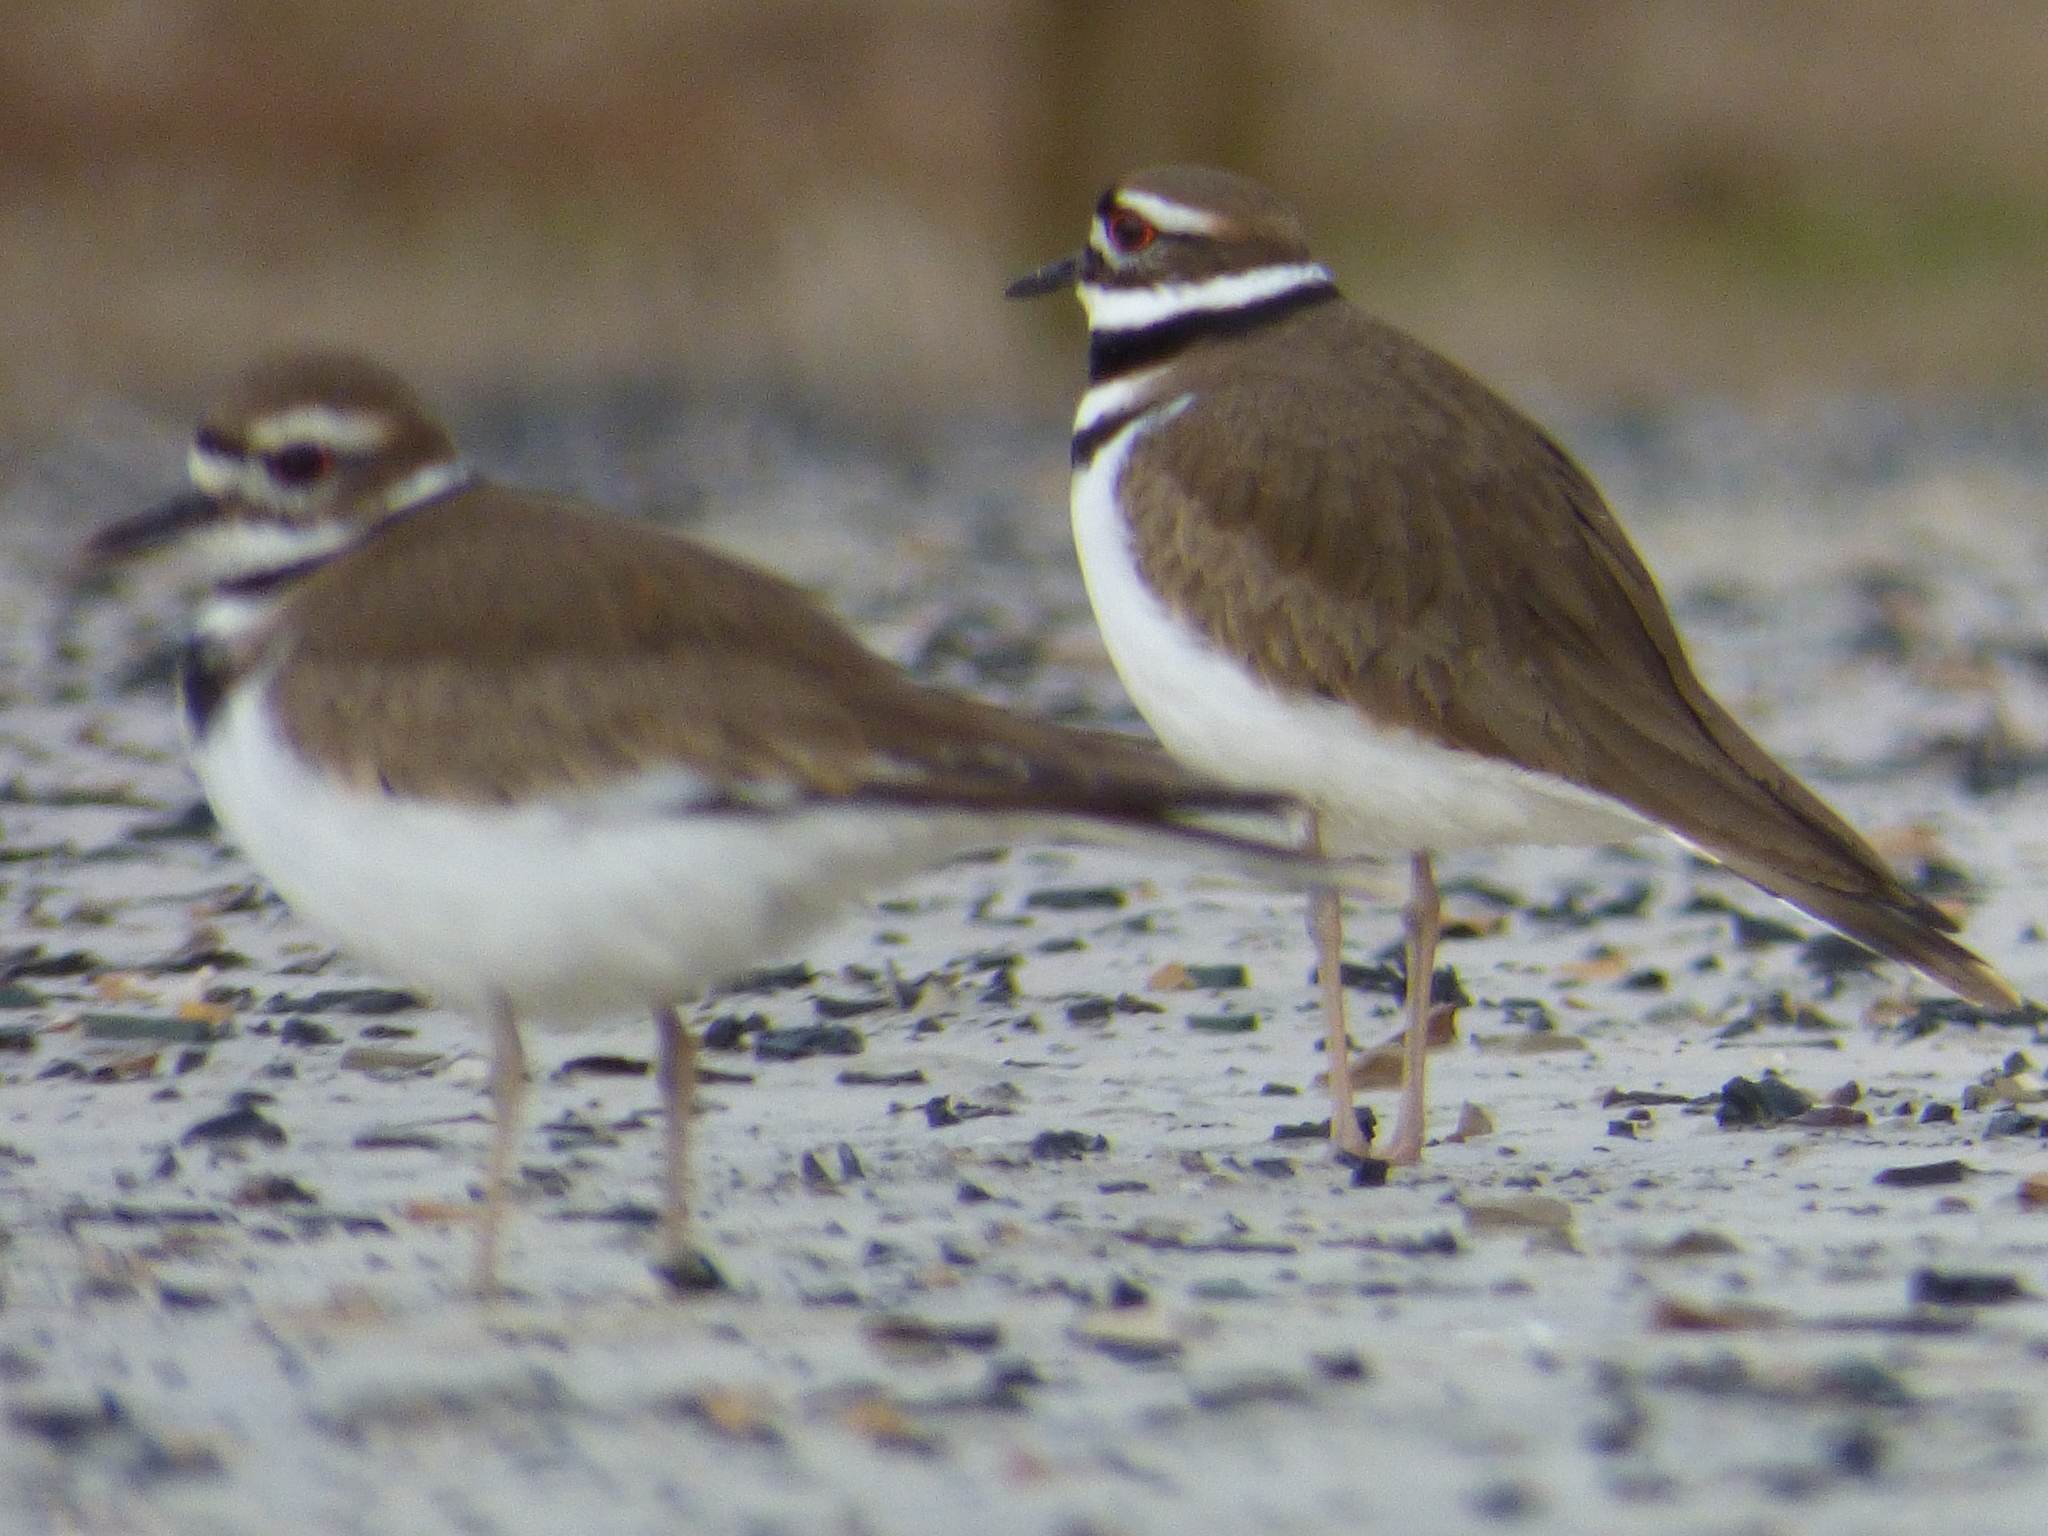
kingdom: Animalia
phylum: Chordata
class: Aves
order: Charadriiformes
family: Charadriidae
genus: Charadrius
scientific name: Charadrius vociferus
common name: Killdeer
